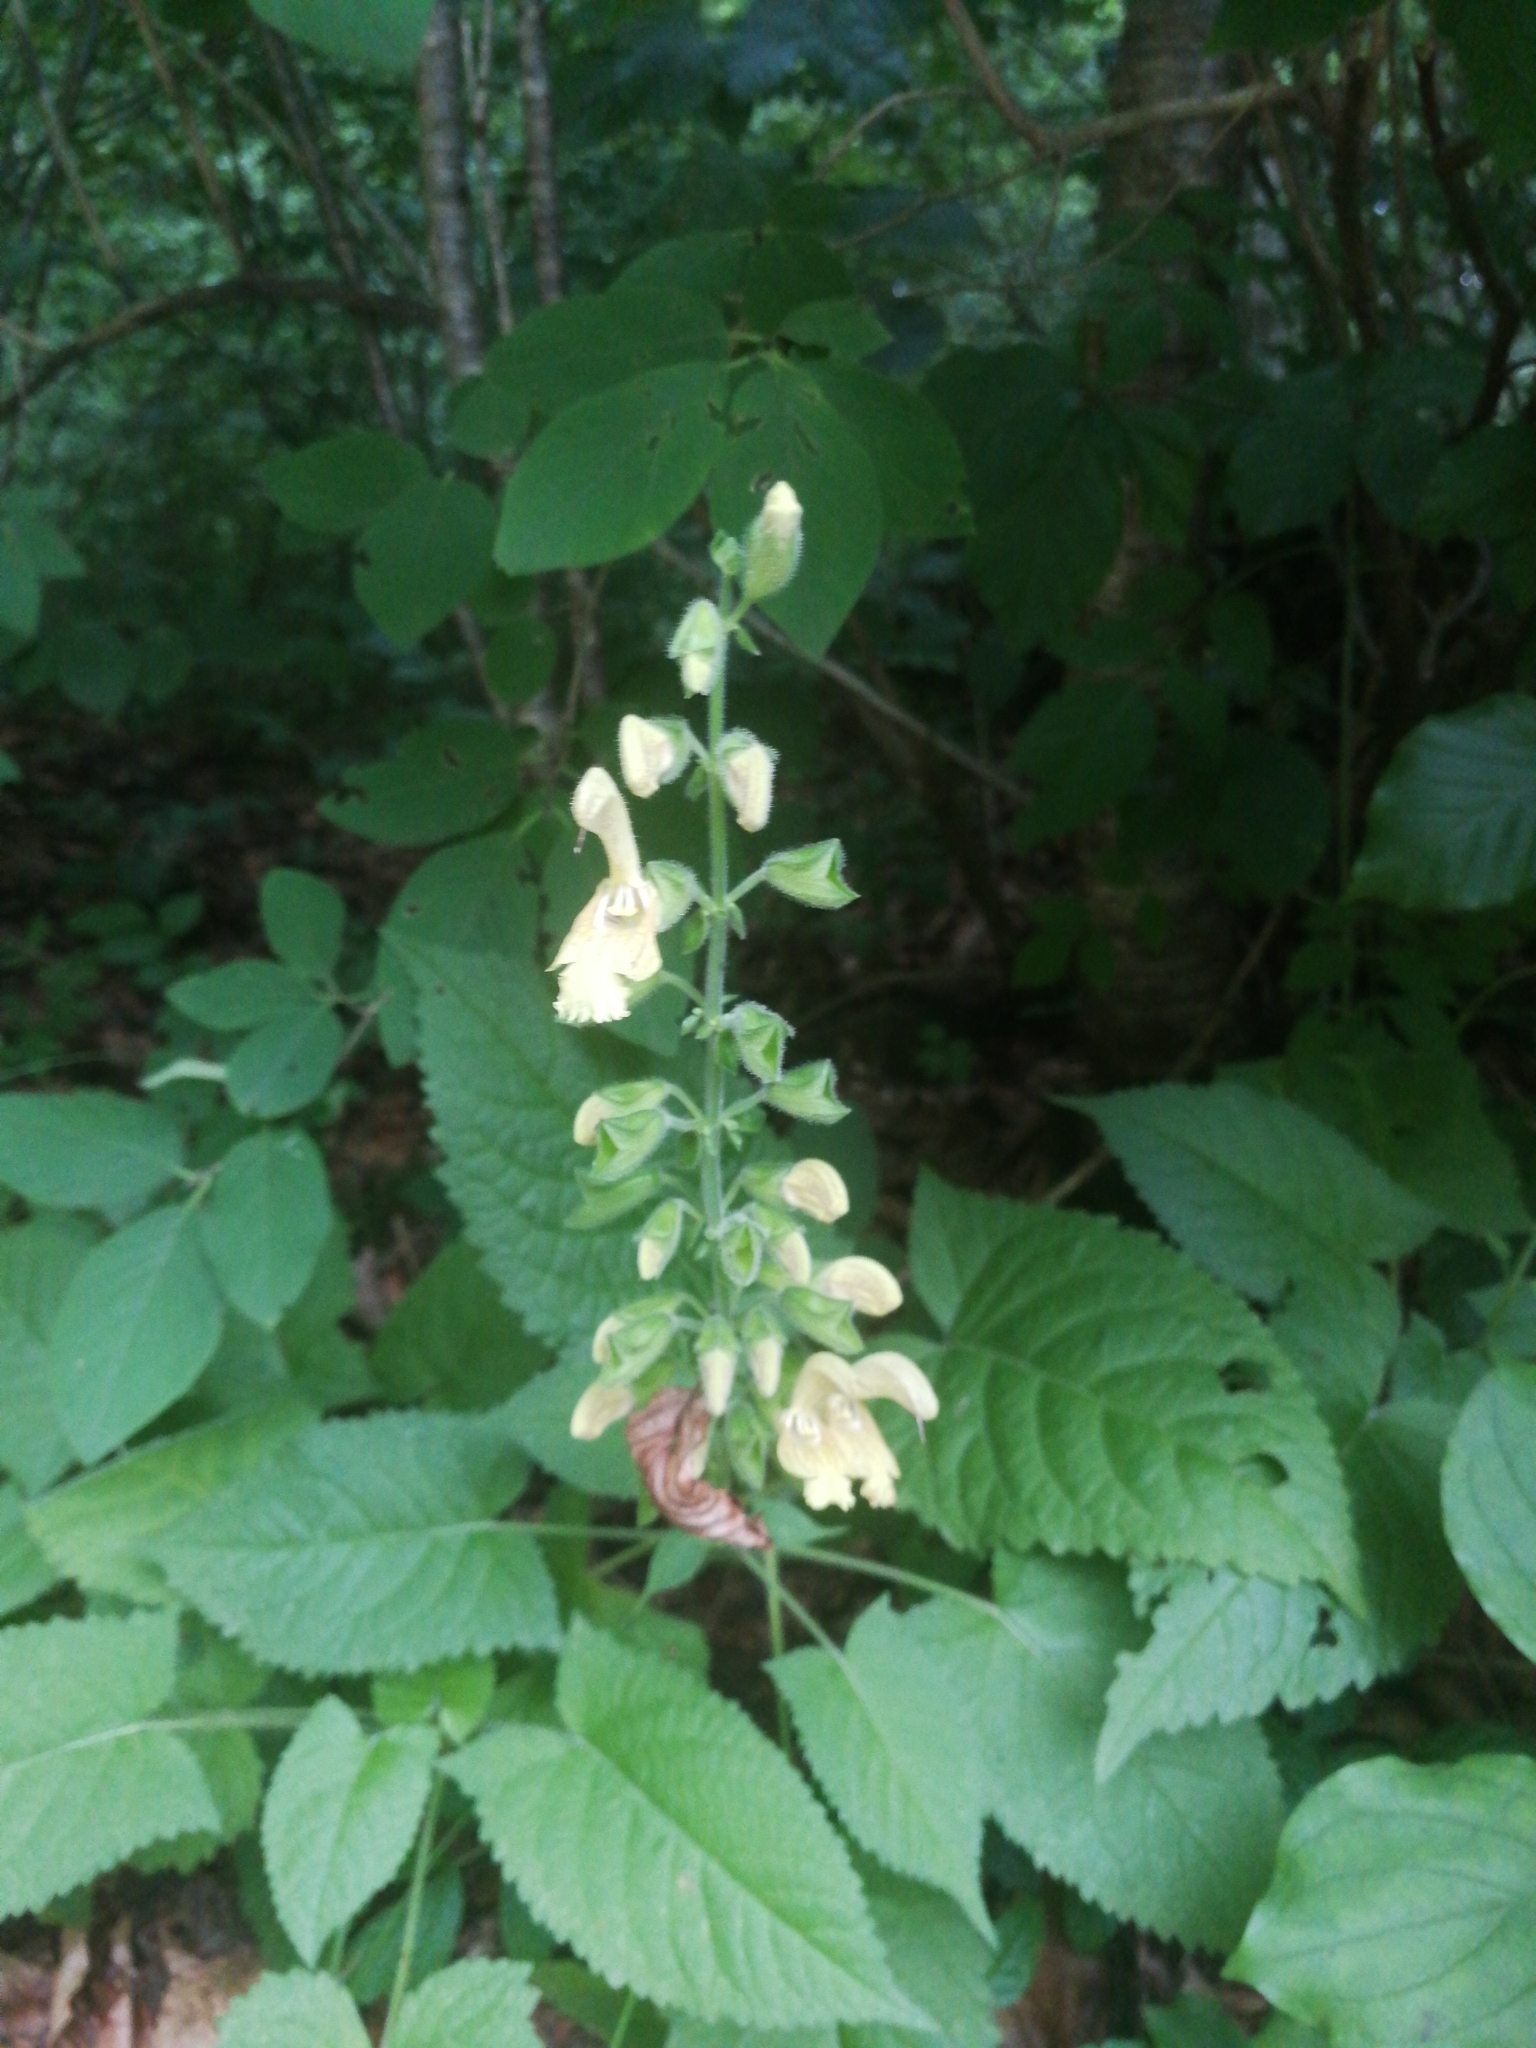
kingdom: Plantae
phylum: Tracheophyta
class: Magnoliopsida
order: Lamiales
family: Lamiaceae
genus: Salvia
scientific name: Salvia glutinosa
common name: Sticky clary
